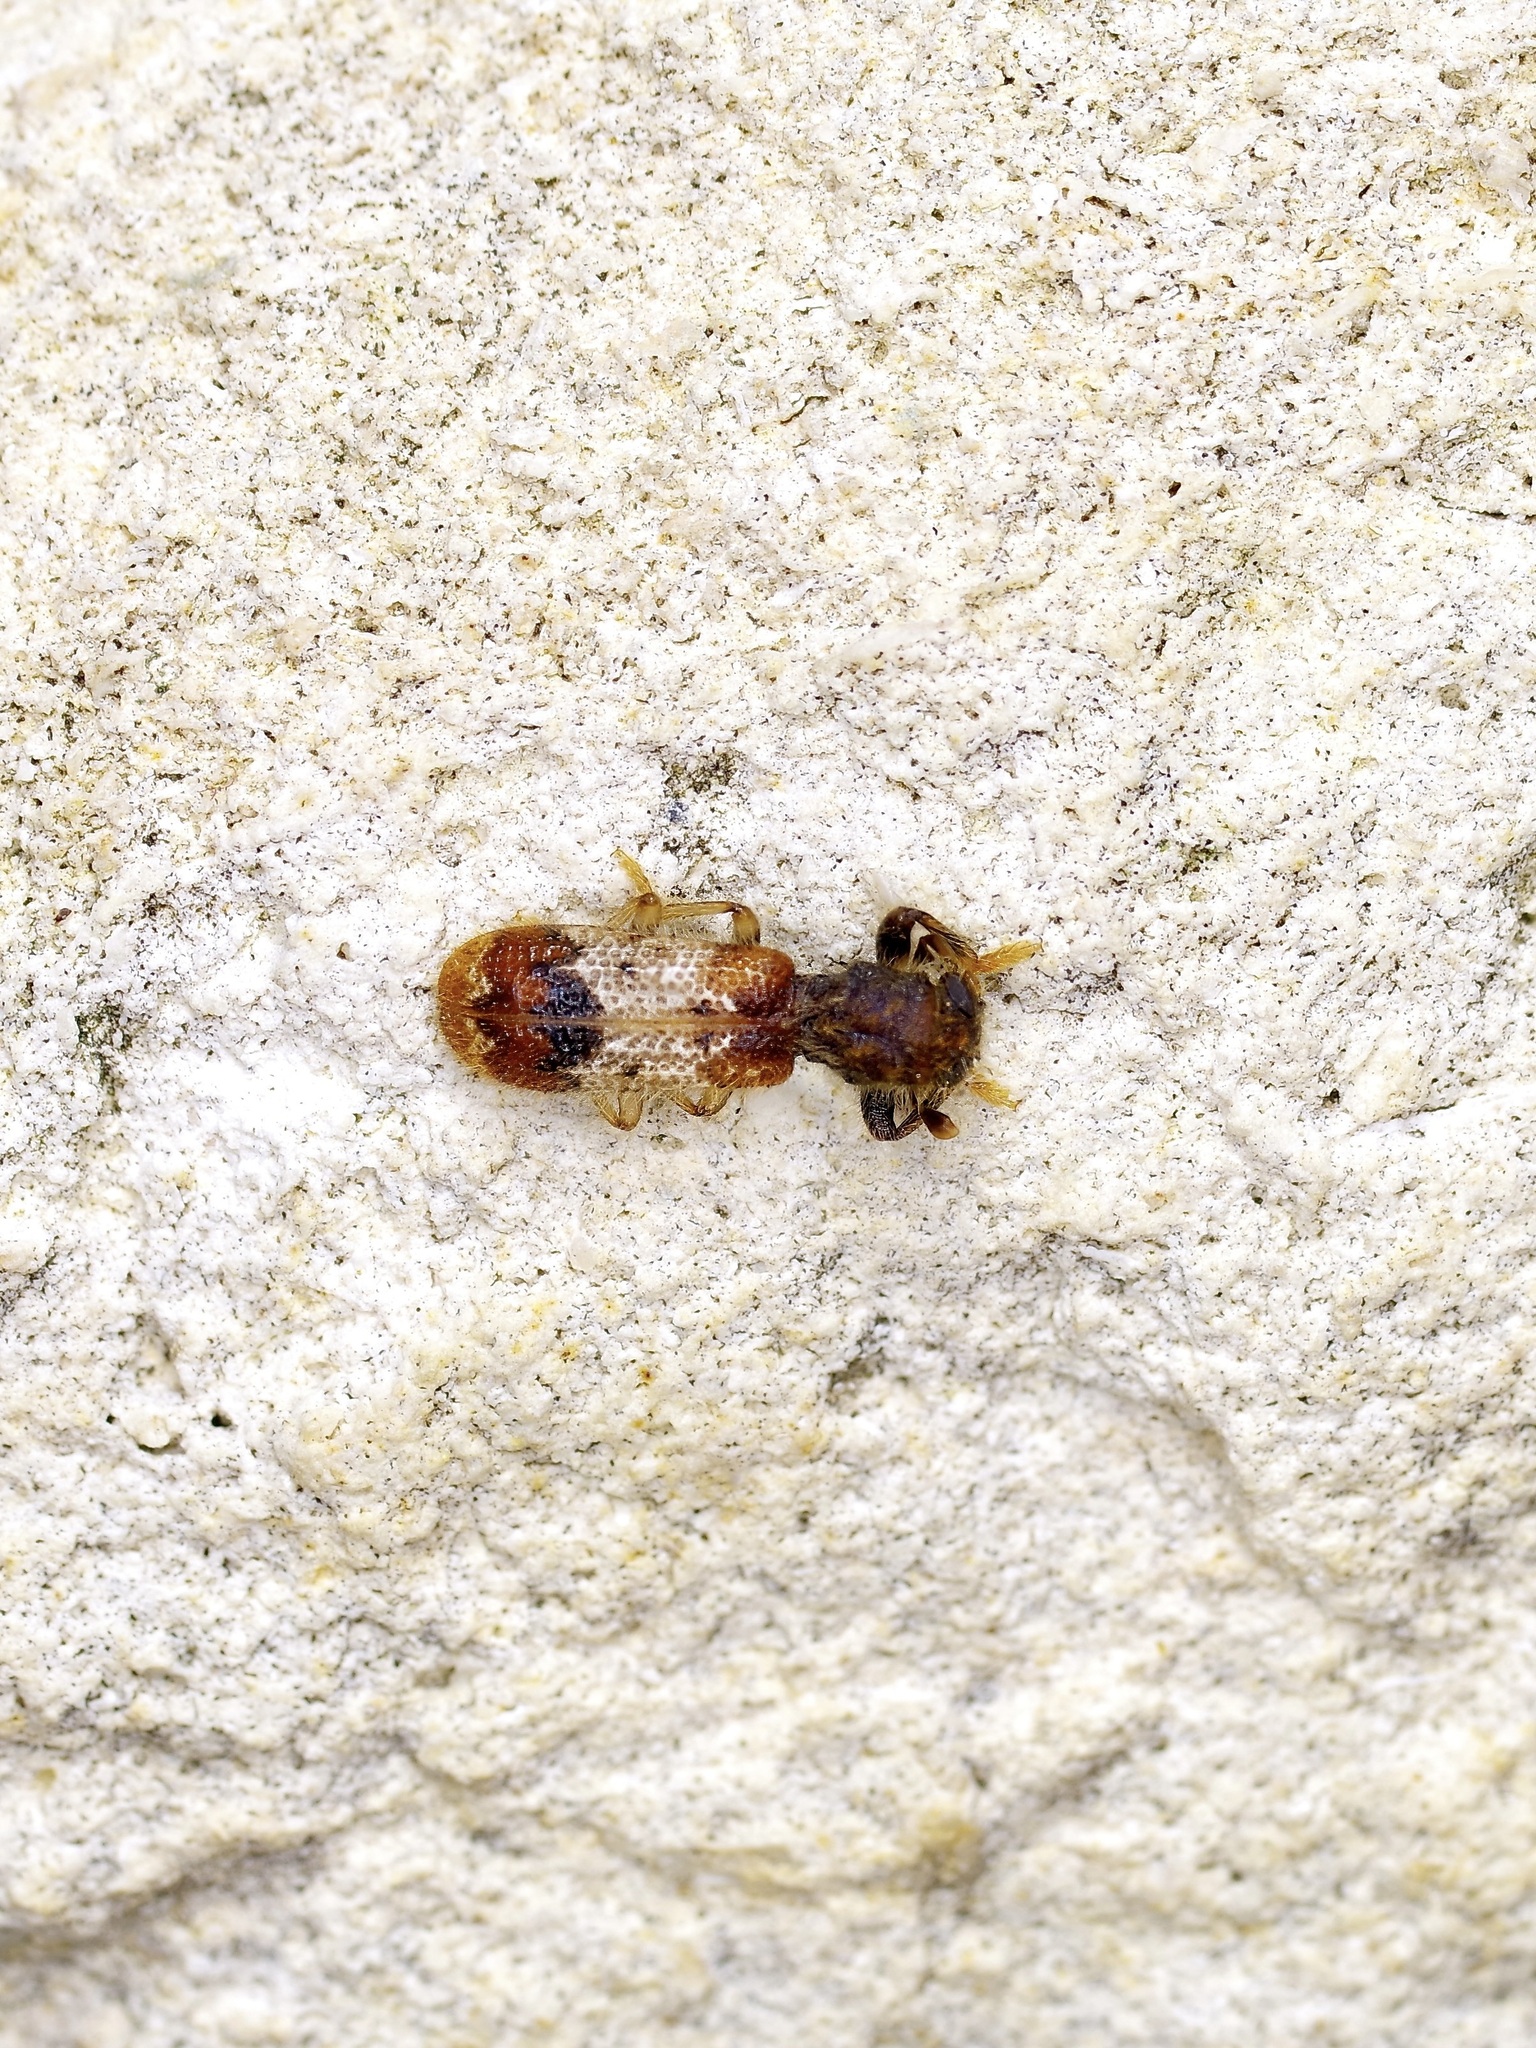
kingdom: Animalia
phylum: Arthropoda
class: Insecta
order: Coleoptera
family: Cleridae
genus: Pelonium
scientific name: Pelonium leucophaeum
